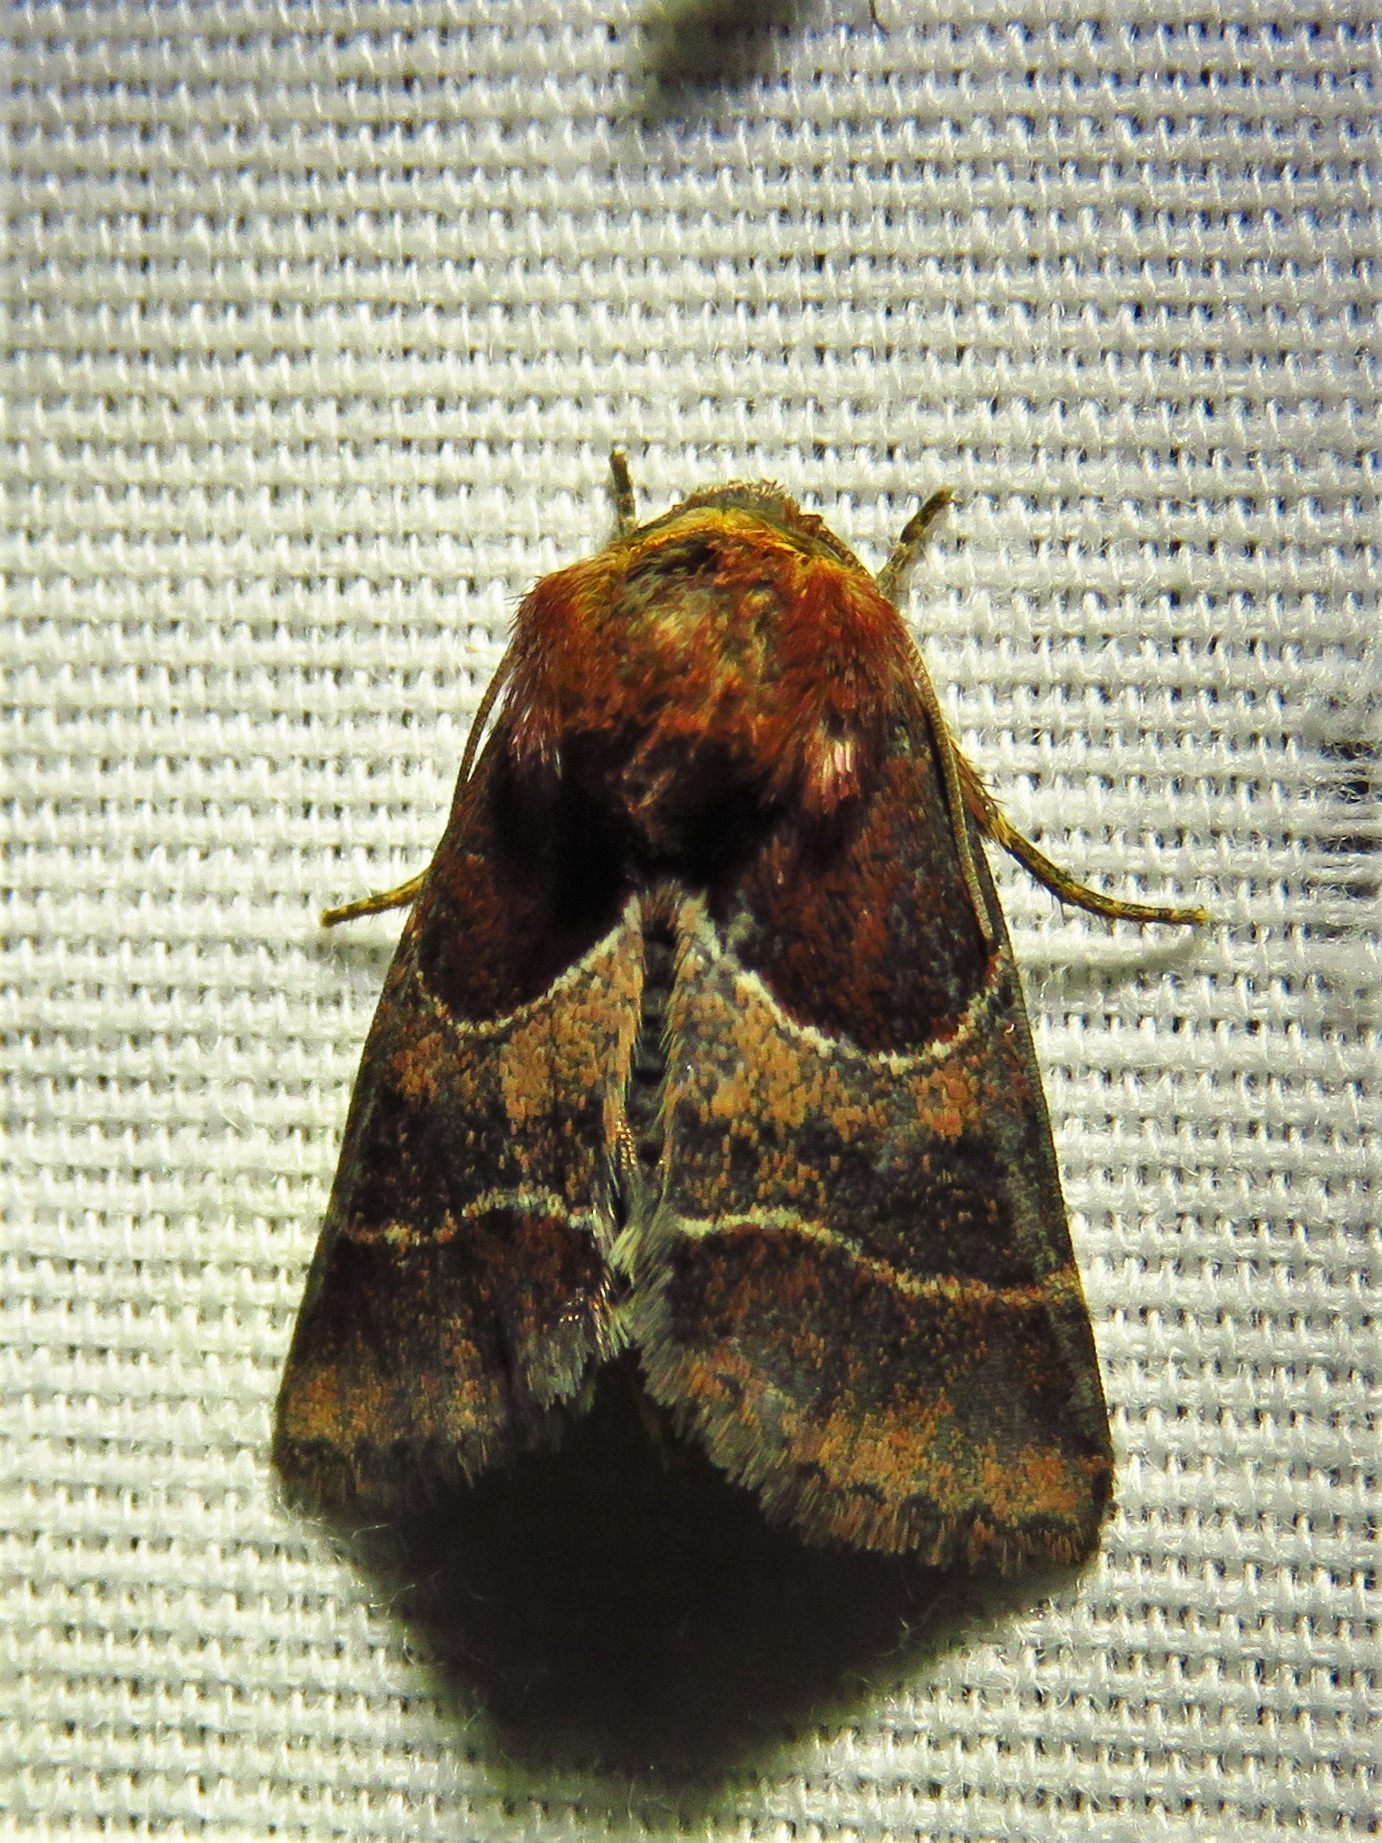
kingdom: Animalia
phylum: Arthropoda
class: Insecta
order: Lepidoptera
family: Noctuidae
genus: Schinia
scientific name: Schinia arcigera
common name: Arcigera flower moth
